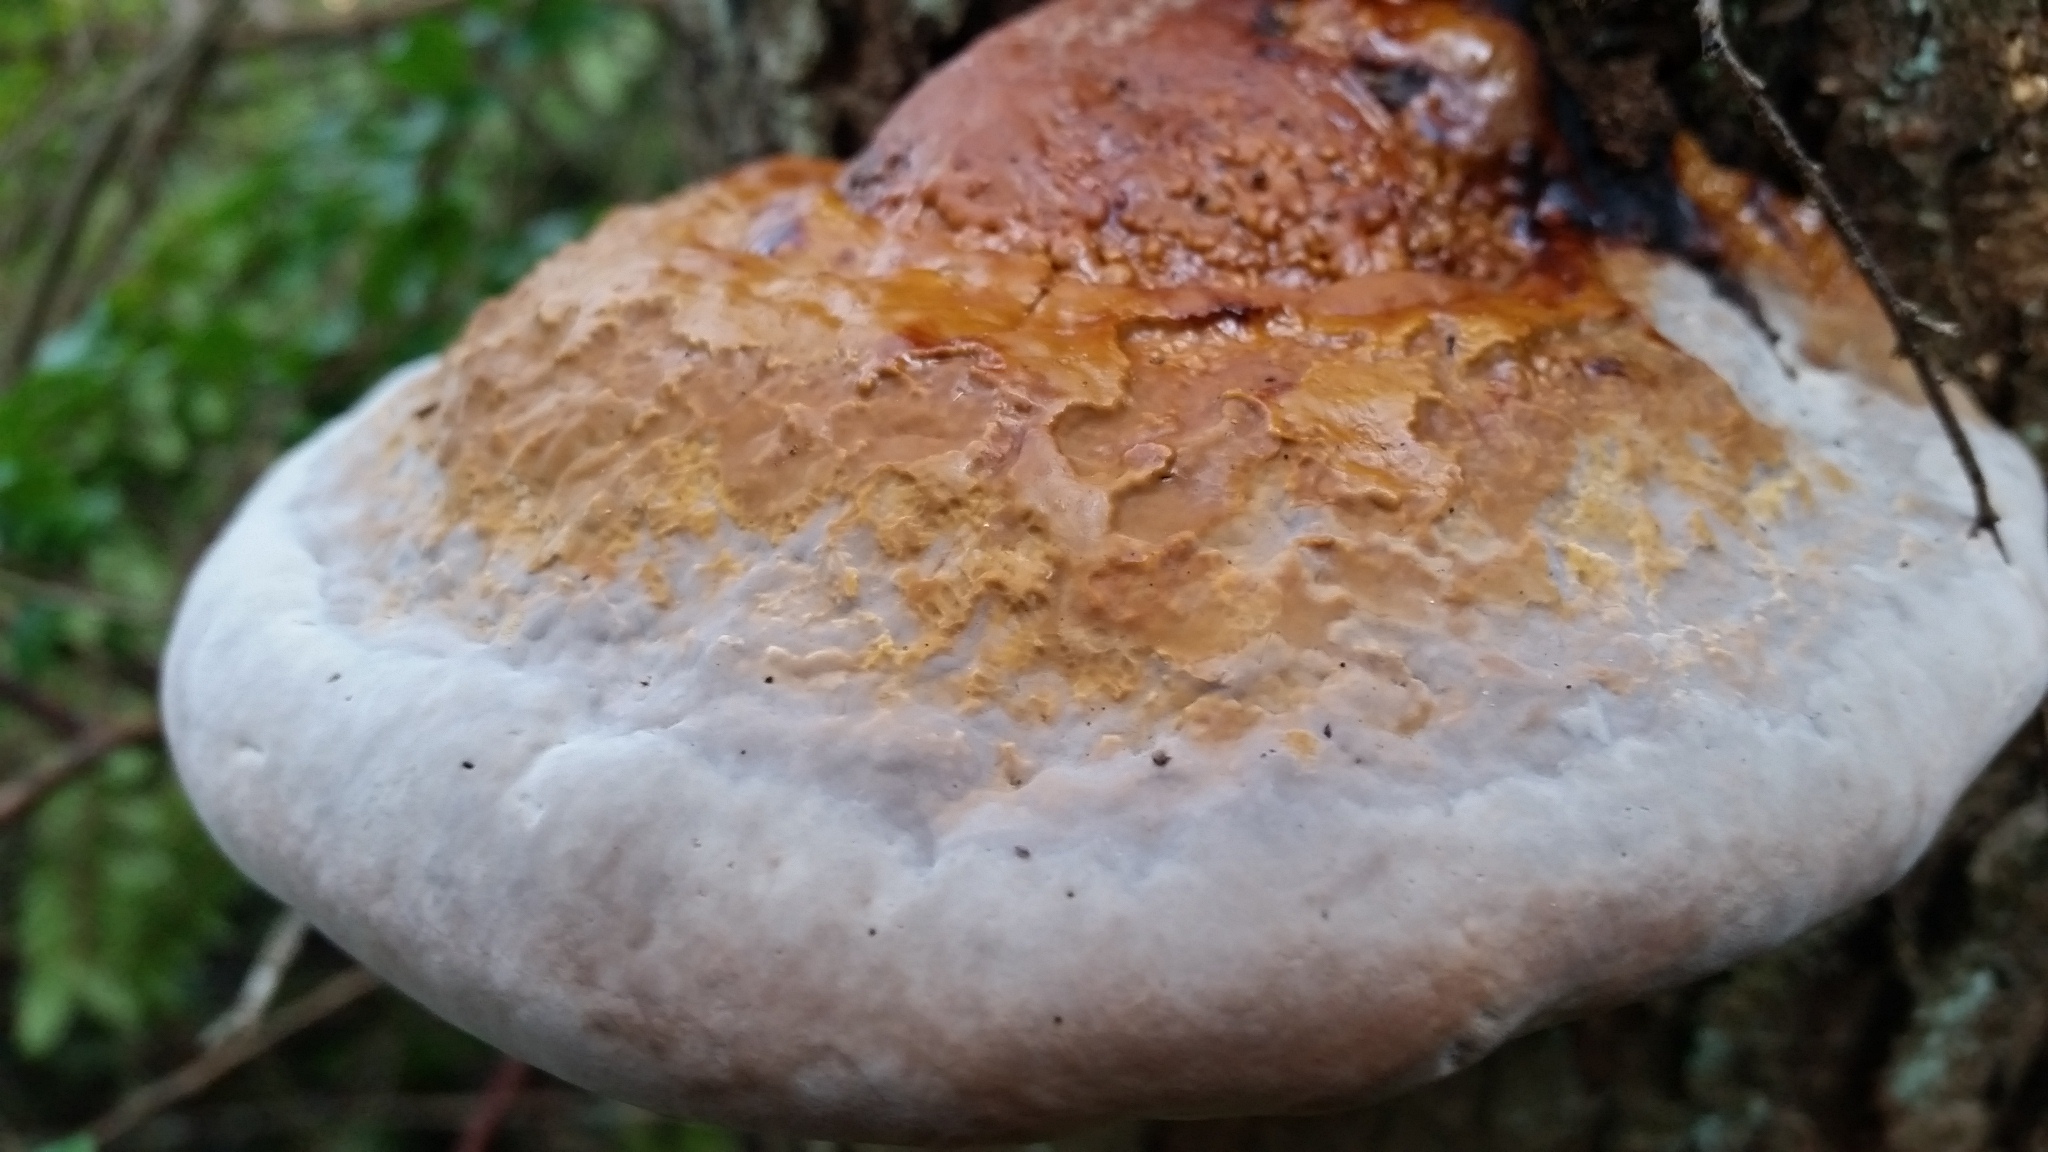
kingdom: Fungi
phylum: Basidiomycota
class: Agaricomycetes
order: Polyporales
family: Fomitopsidaceae
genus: Fomitopsis
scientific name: Fomitopsis mounceae
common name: Northern red belt
